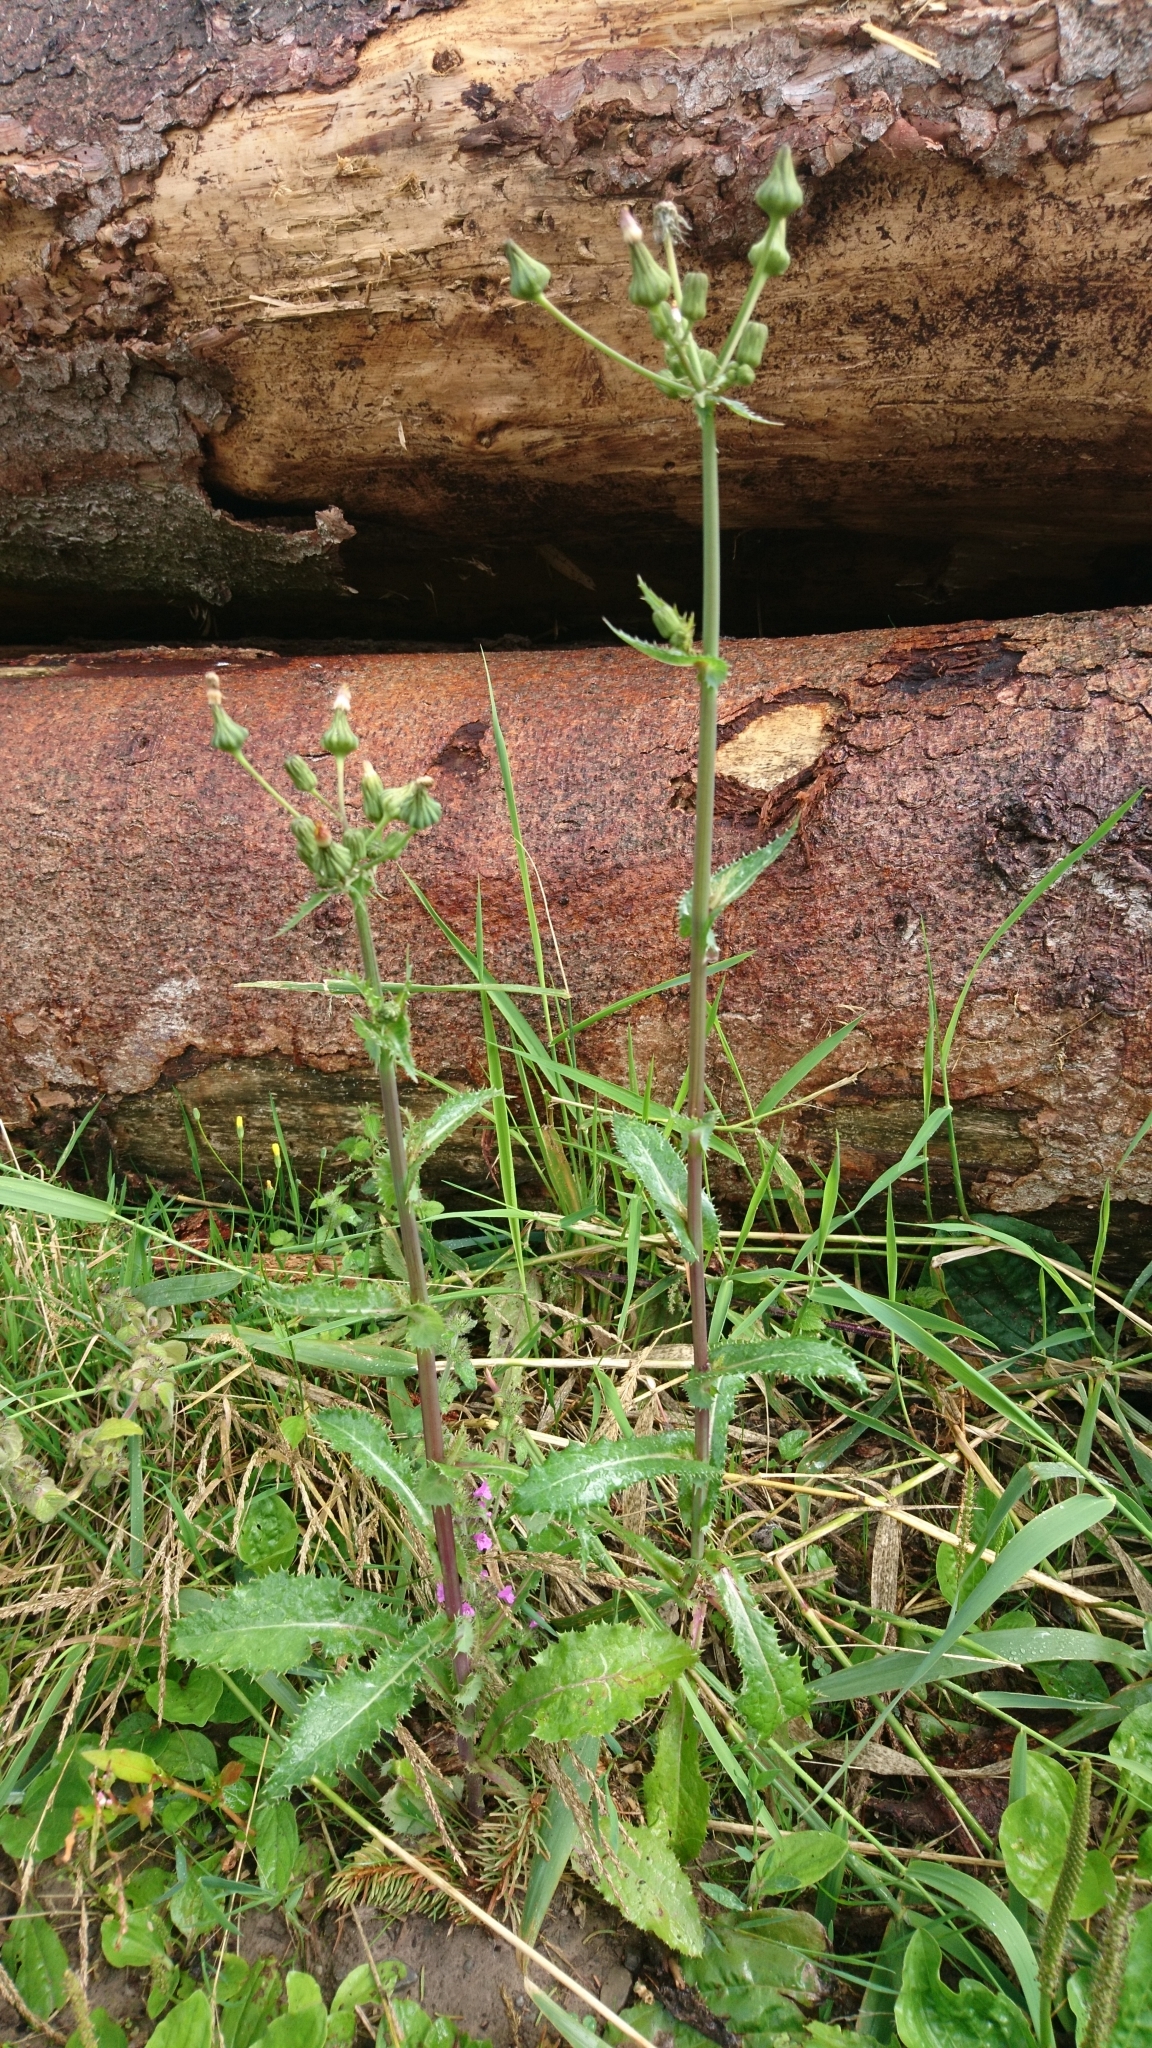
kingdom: Plantae
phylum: Tracheophyta
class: Magnoliopsida
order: Asterales
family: Asteraceae
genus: Sonchus
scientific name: Sonchus asper
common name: Prickly sow-thistle
